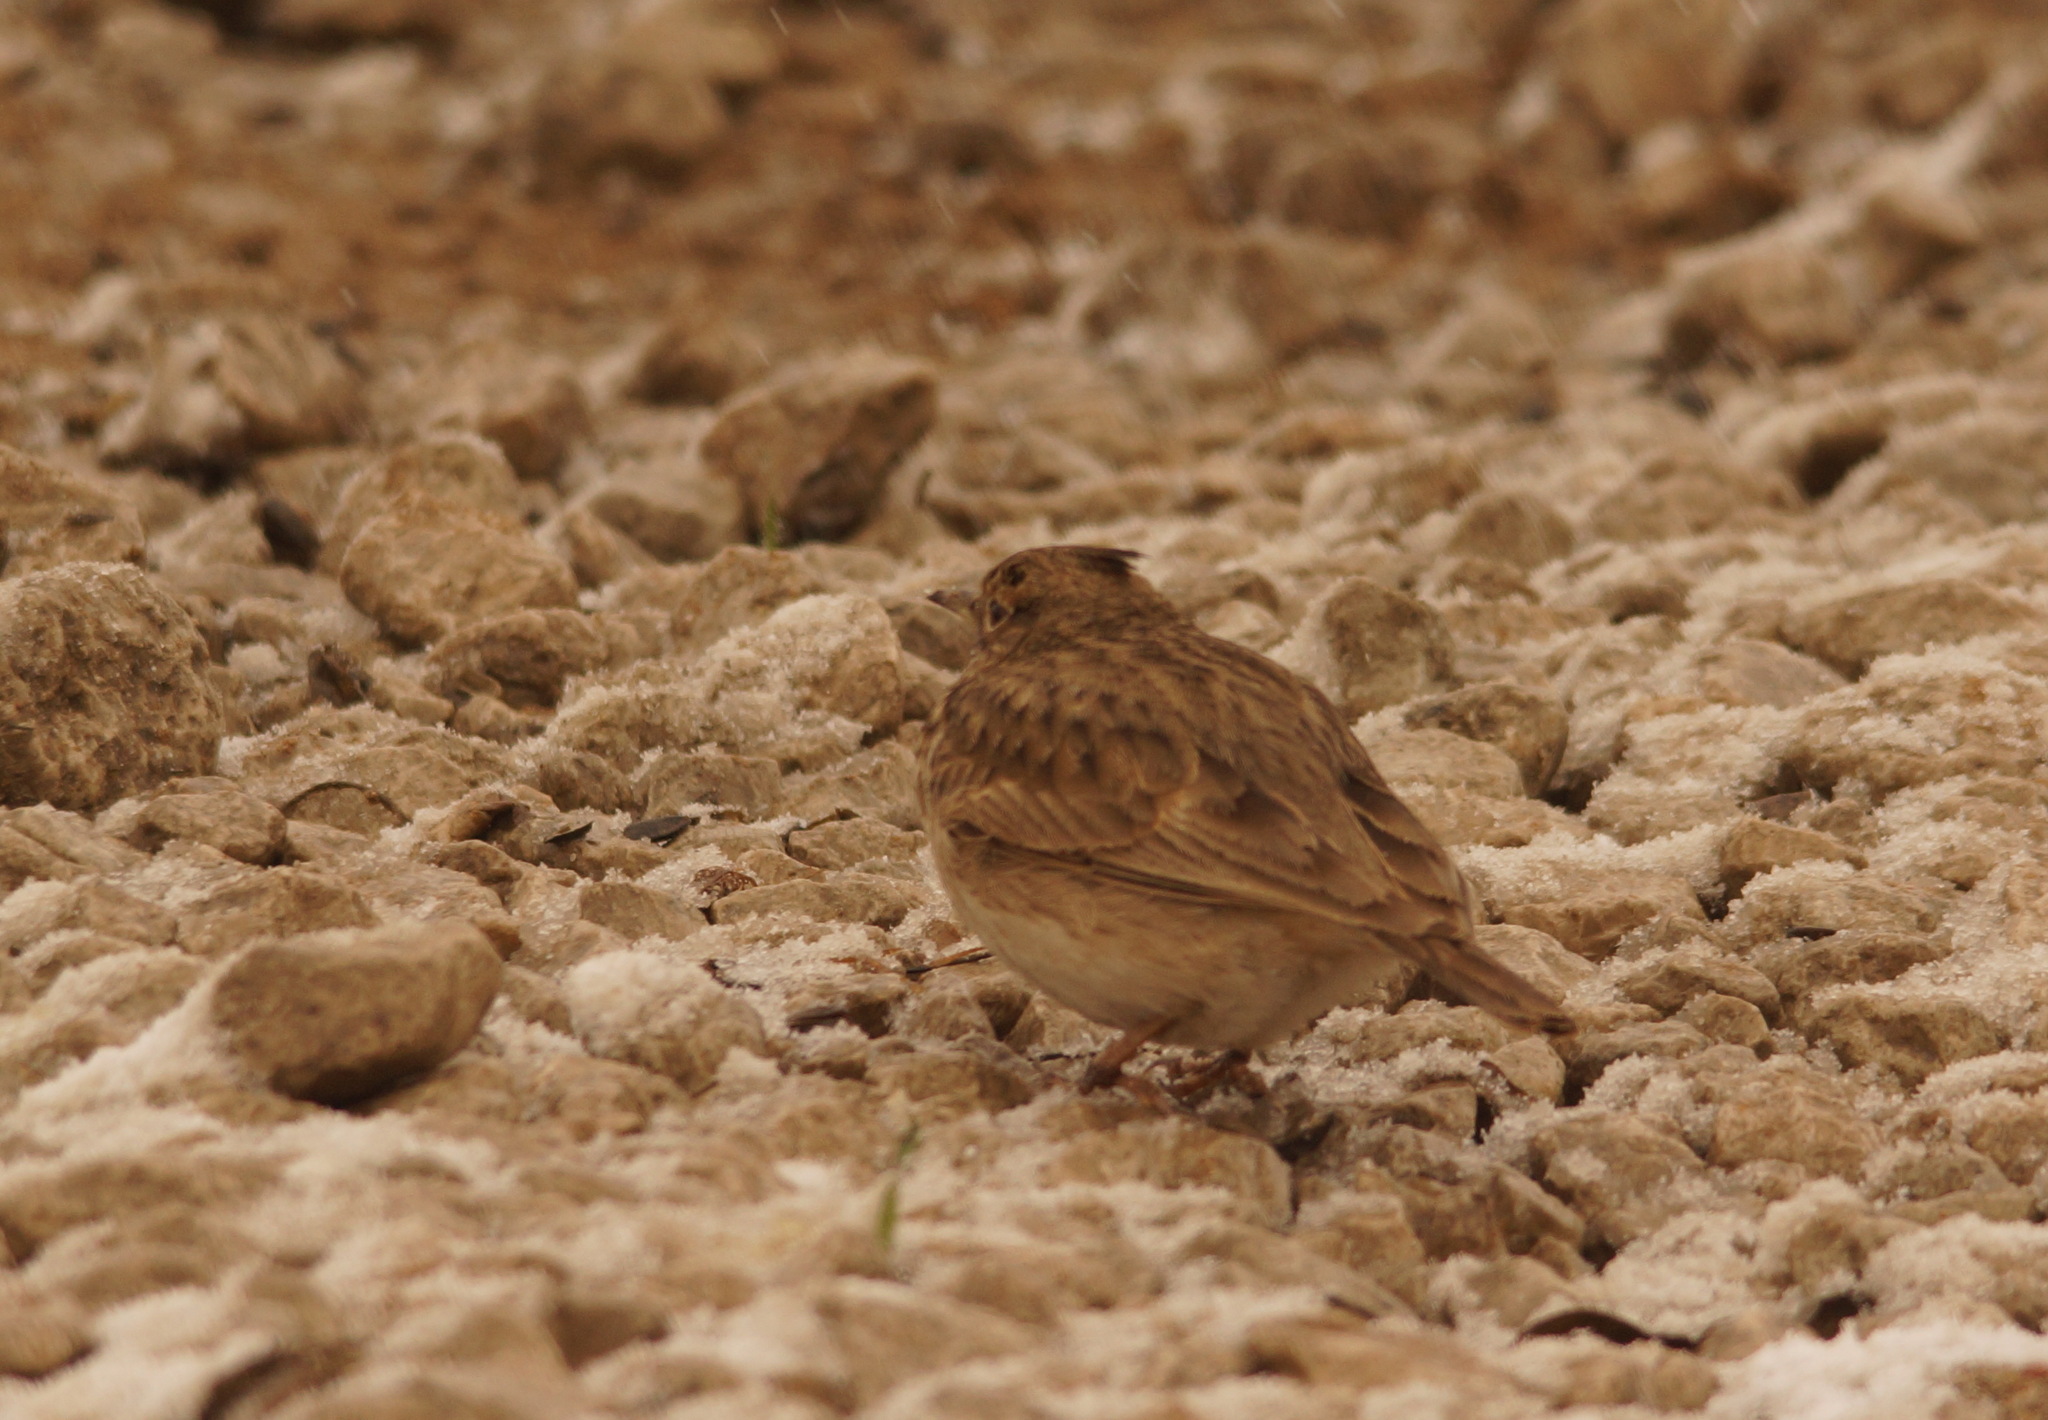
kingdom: Animalia
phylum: Chordata
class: Aves
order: Passeriformes
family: Alaudidae
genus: Galerida
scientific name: Galerida cristata
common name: Crested lark
